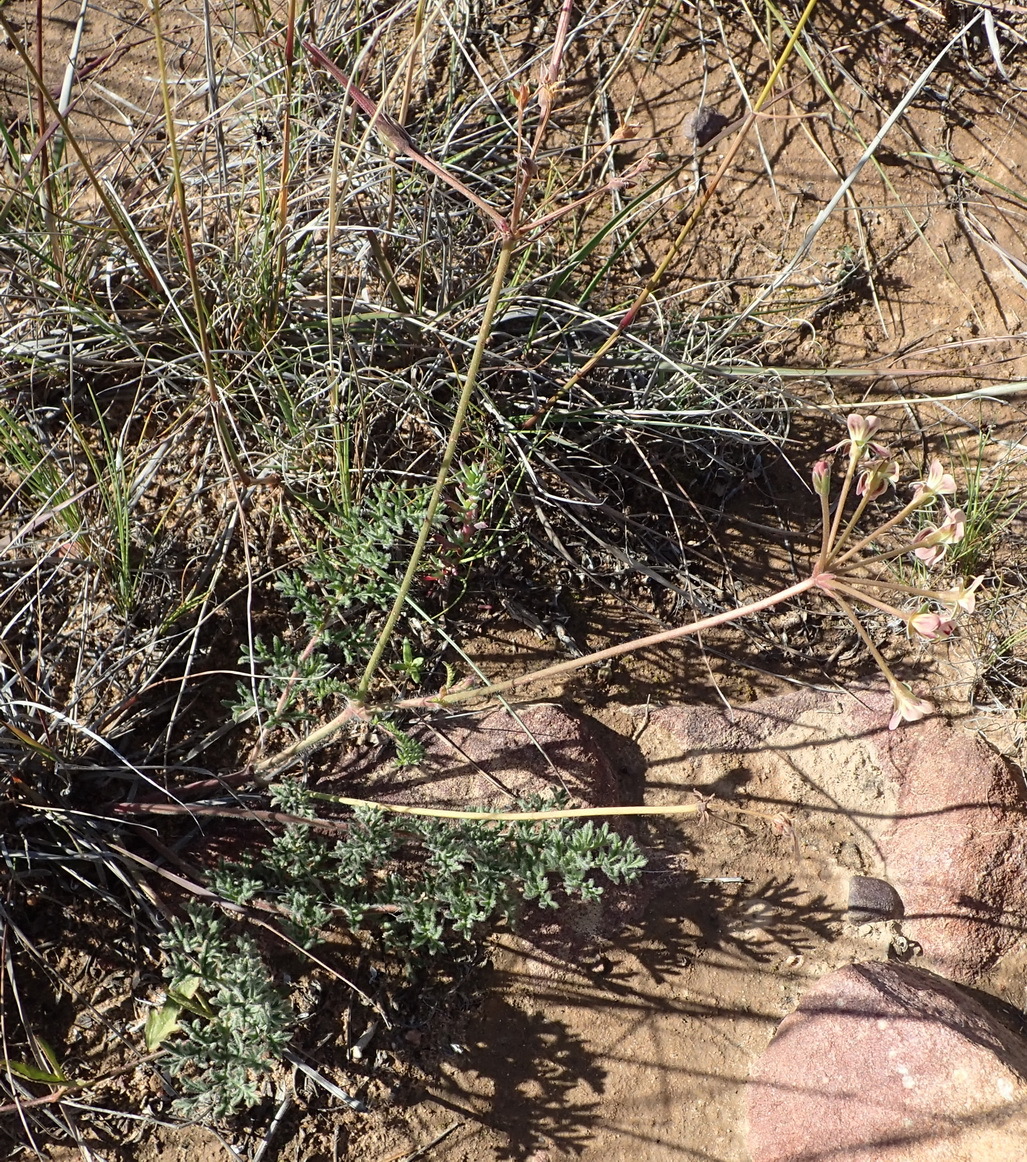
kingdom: Plantae
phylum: Tracheophyta
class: Magnoliopsida
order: Geraniales
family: Geraniaceae
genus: Pelargonium
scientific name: Pelargonium triste
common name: Night-scent pelargonium
